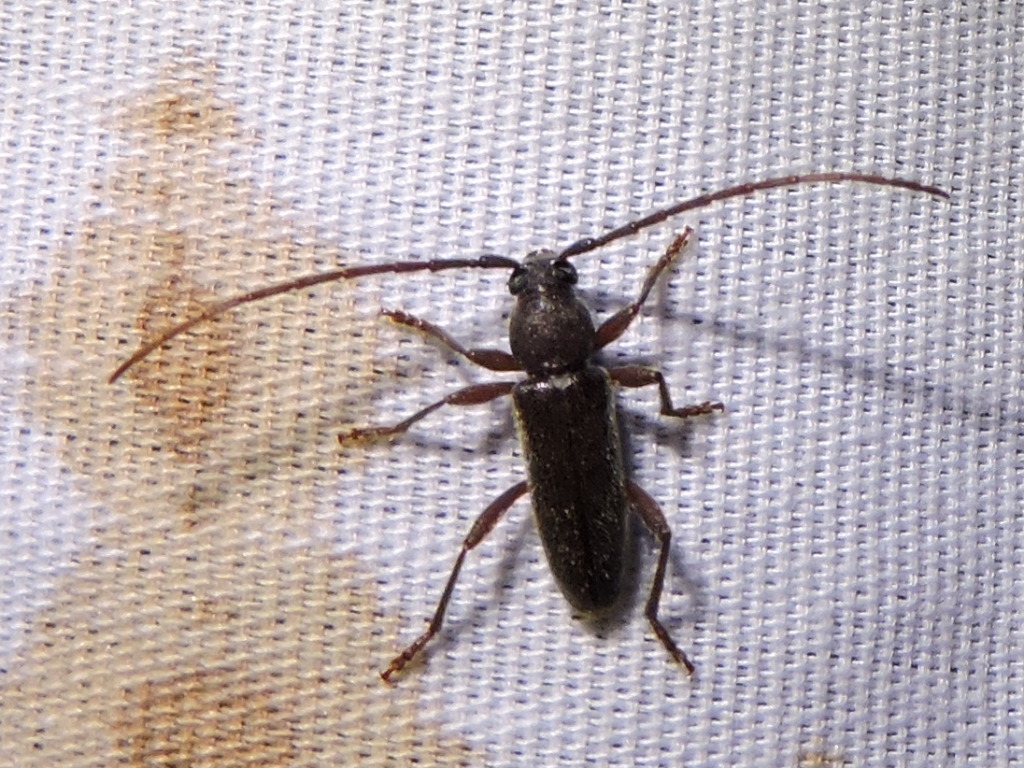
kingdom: Animalia
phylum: Arthropoda
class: Insecta
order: Coleoptera
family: Cerambycidae
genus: Anelaphus
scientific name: Anelaphus moestus
